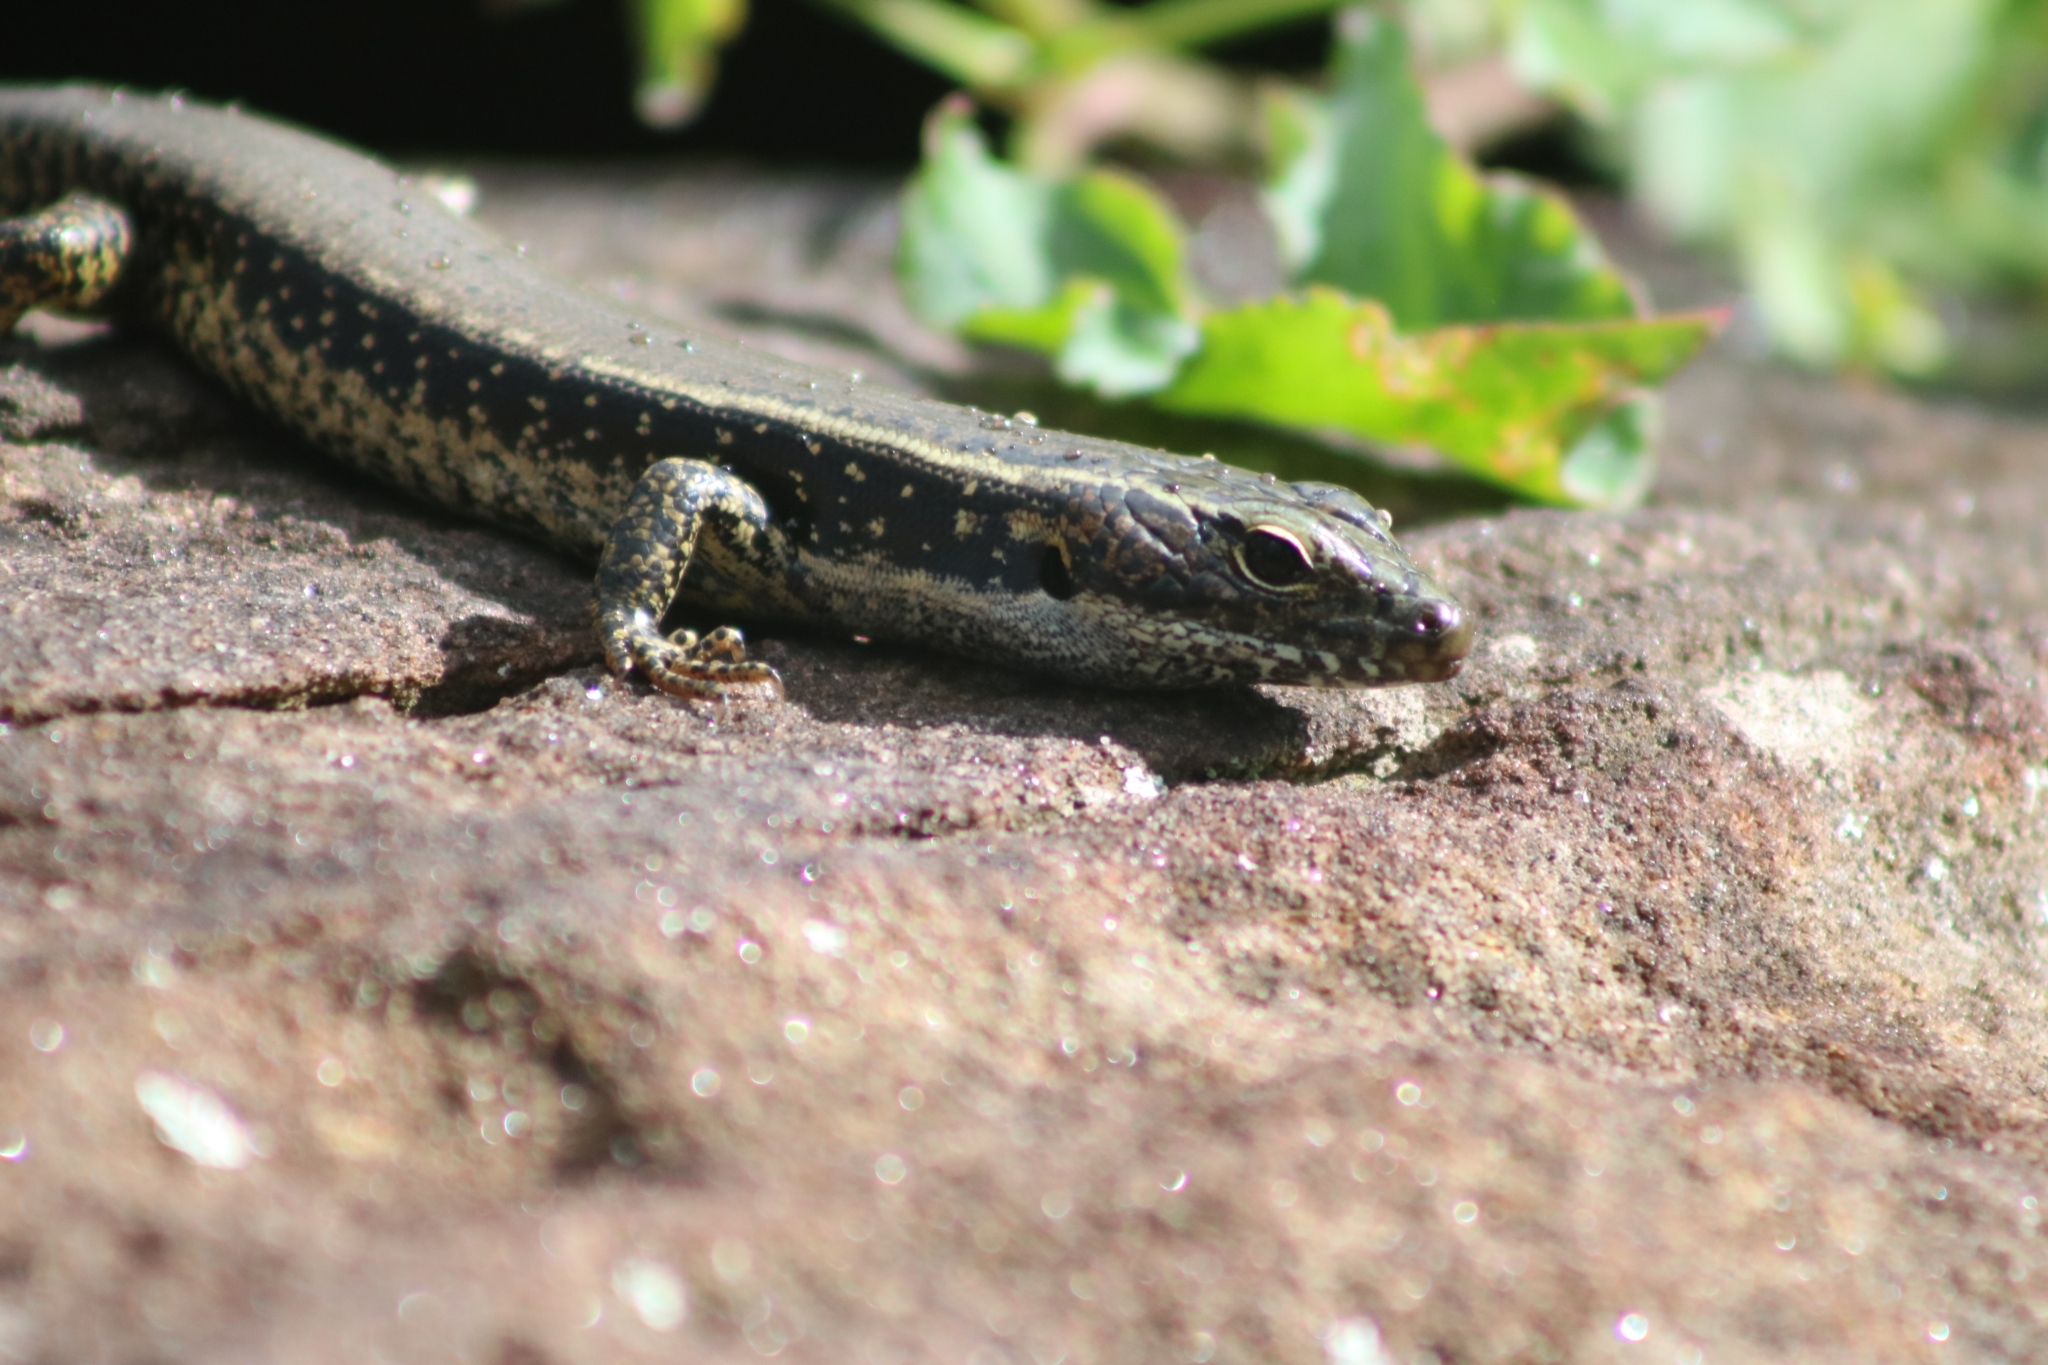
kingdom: Animalia
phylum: Chordata
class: Squamata
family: Scincidae
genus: Eulamprus
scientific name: Eulamprus quoyii
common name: Eastern water skink
